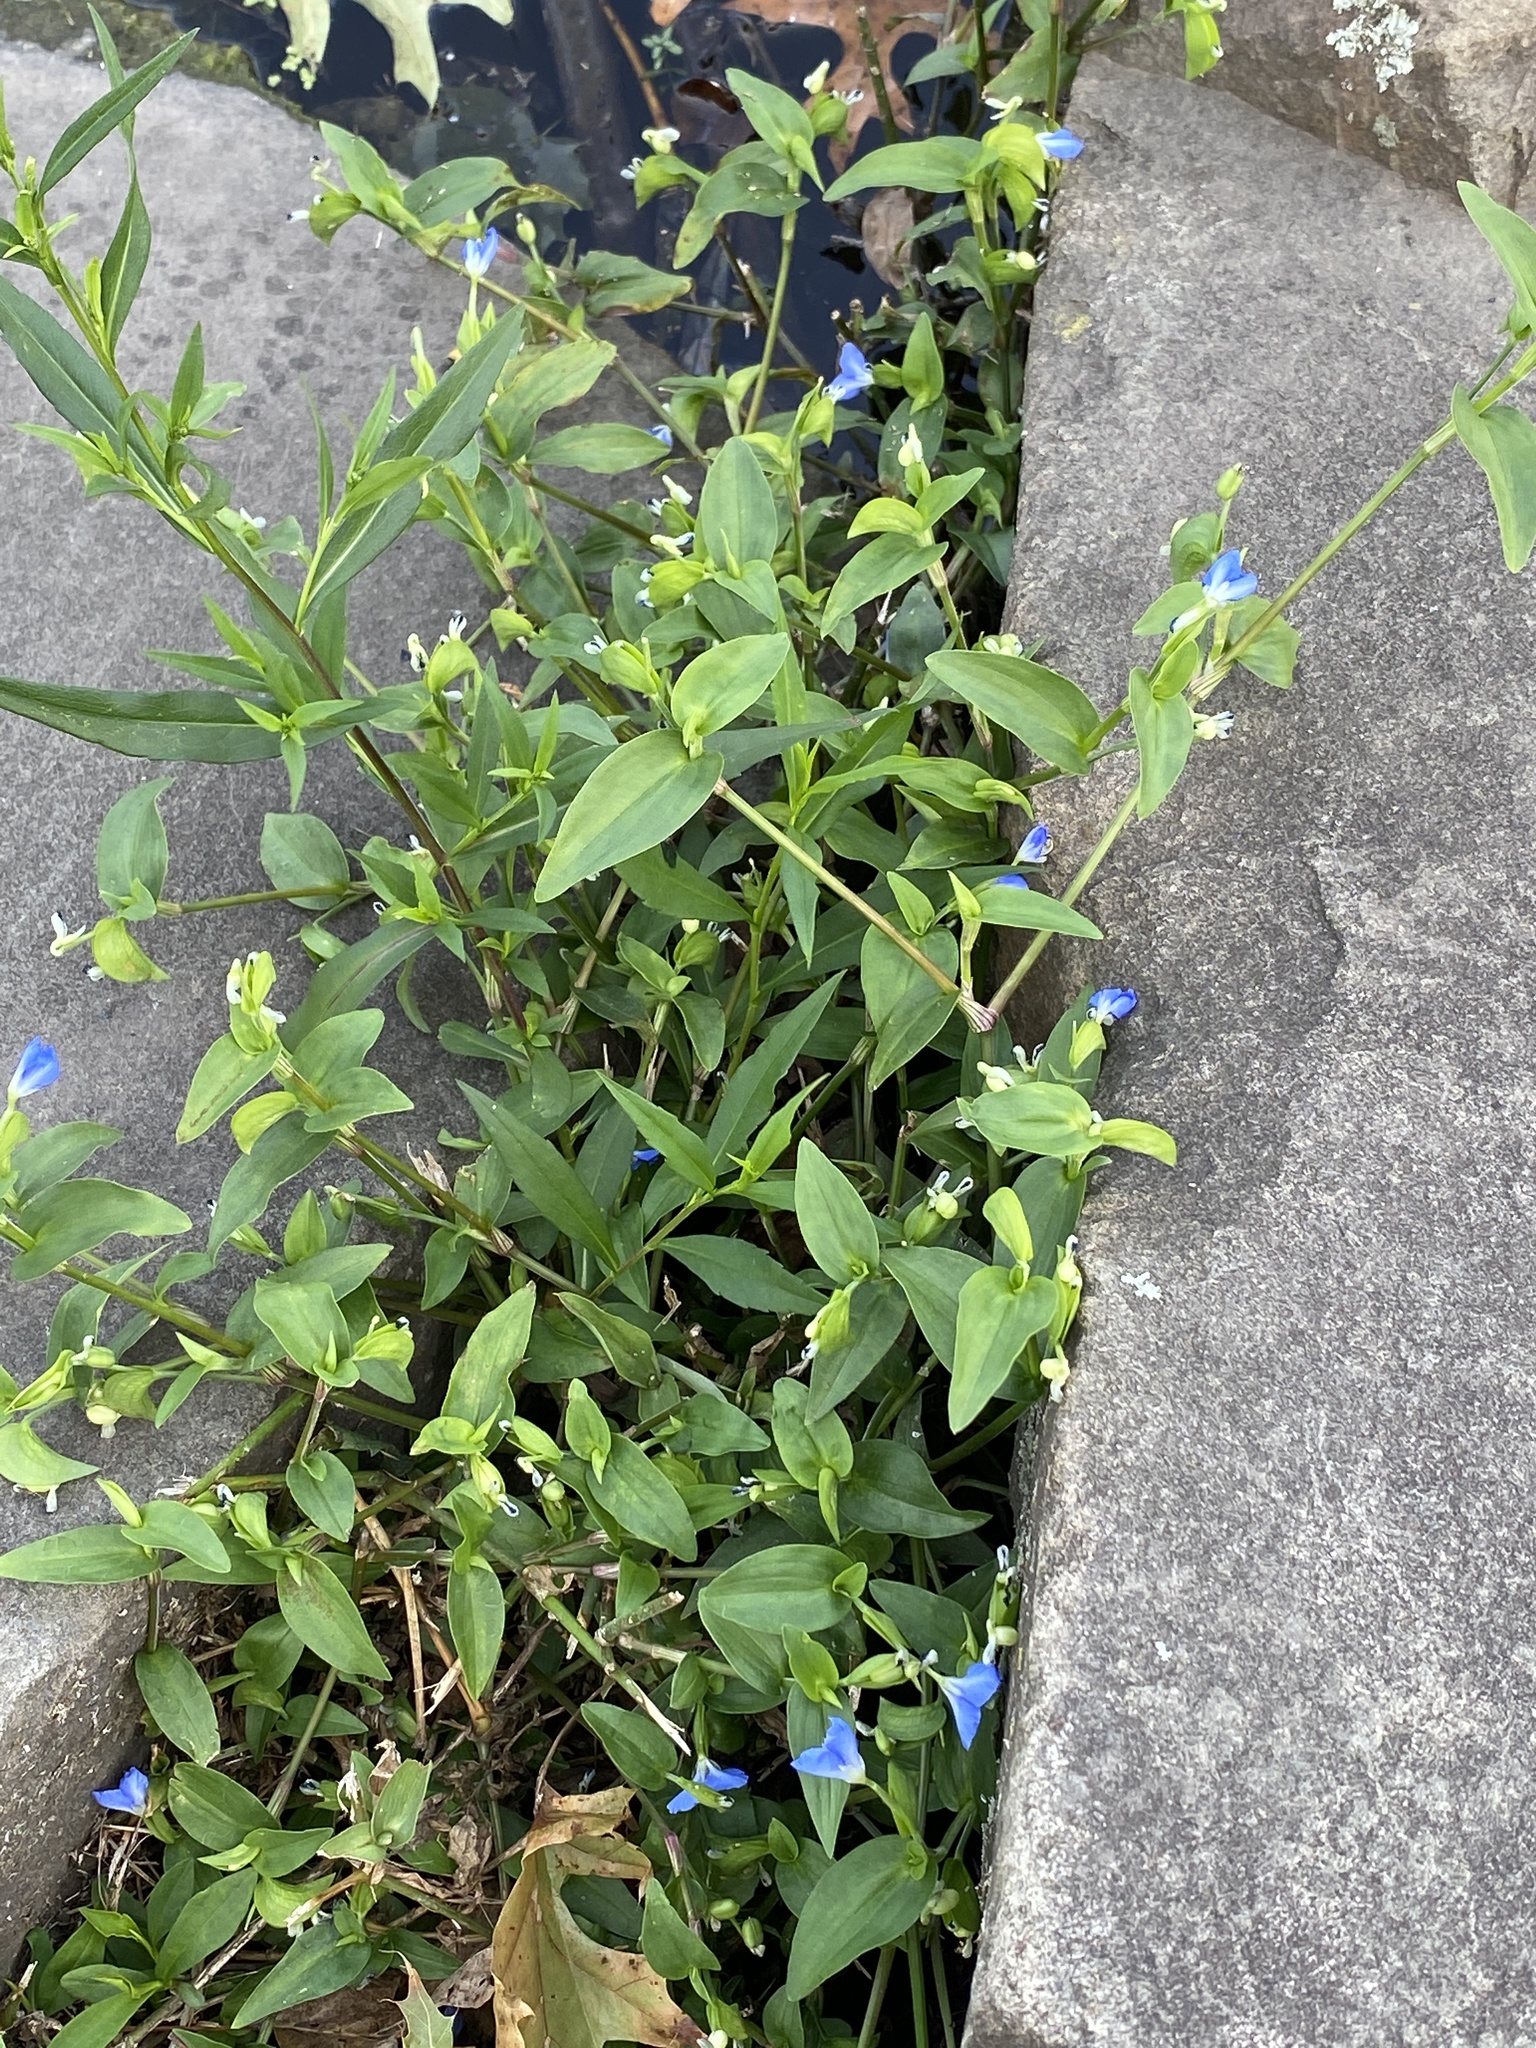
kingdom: Plantae
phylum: Tracheophyta
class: Liliopsida
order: Commelinales
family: Commelinaceae
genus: Commelina
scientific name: Commelina communis
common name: Asiatic dayflower
